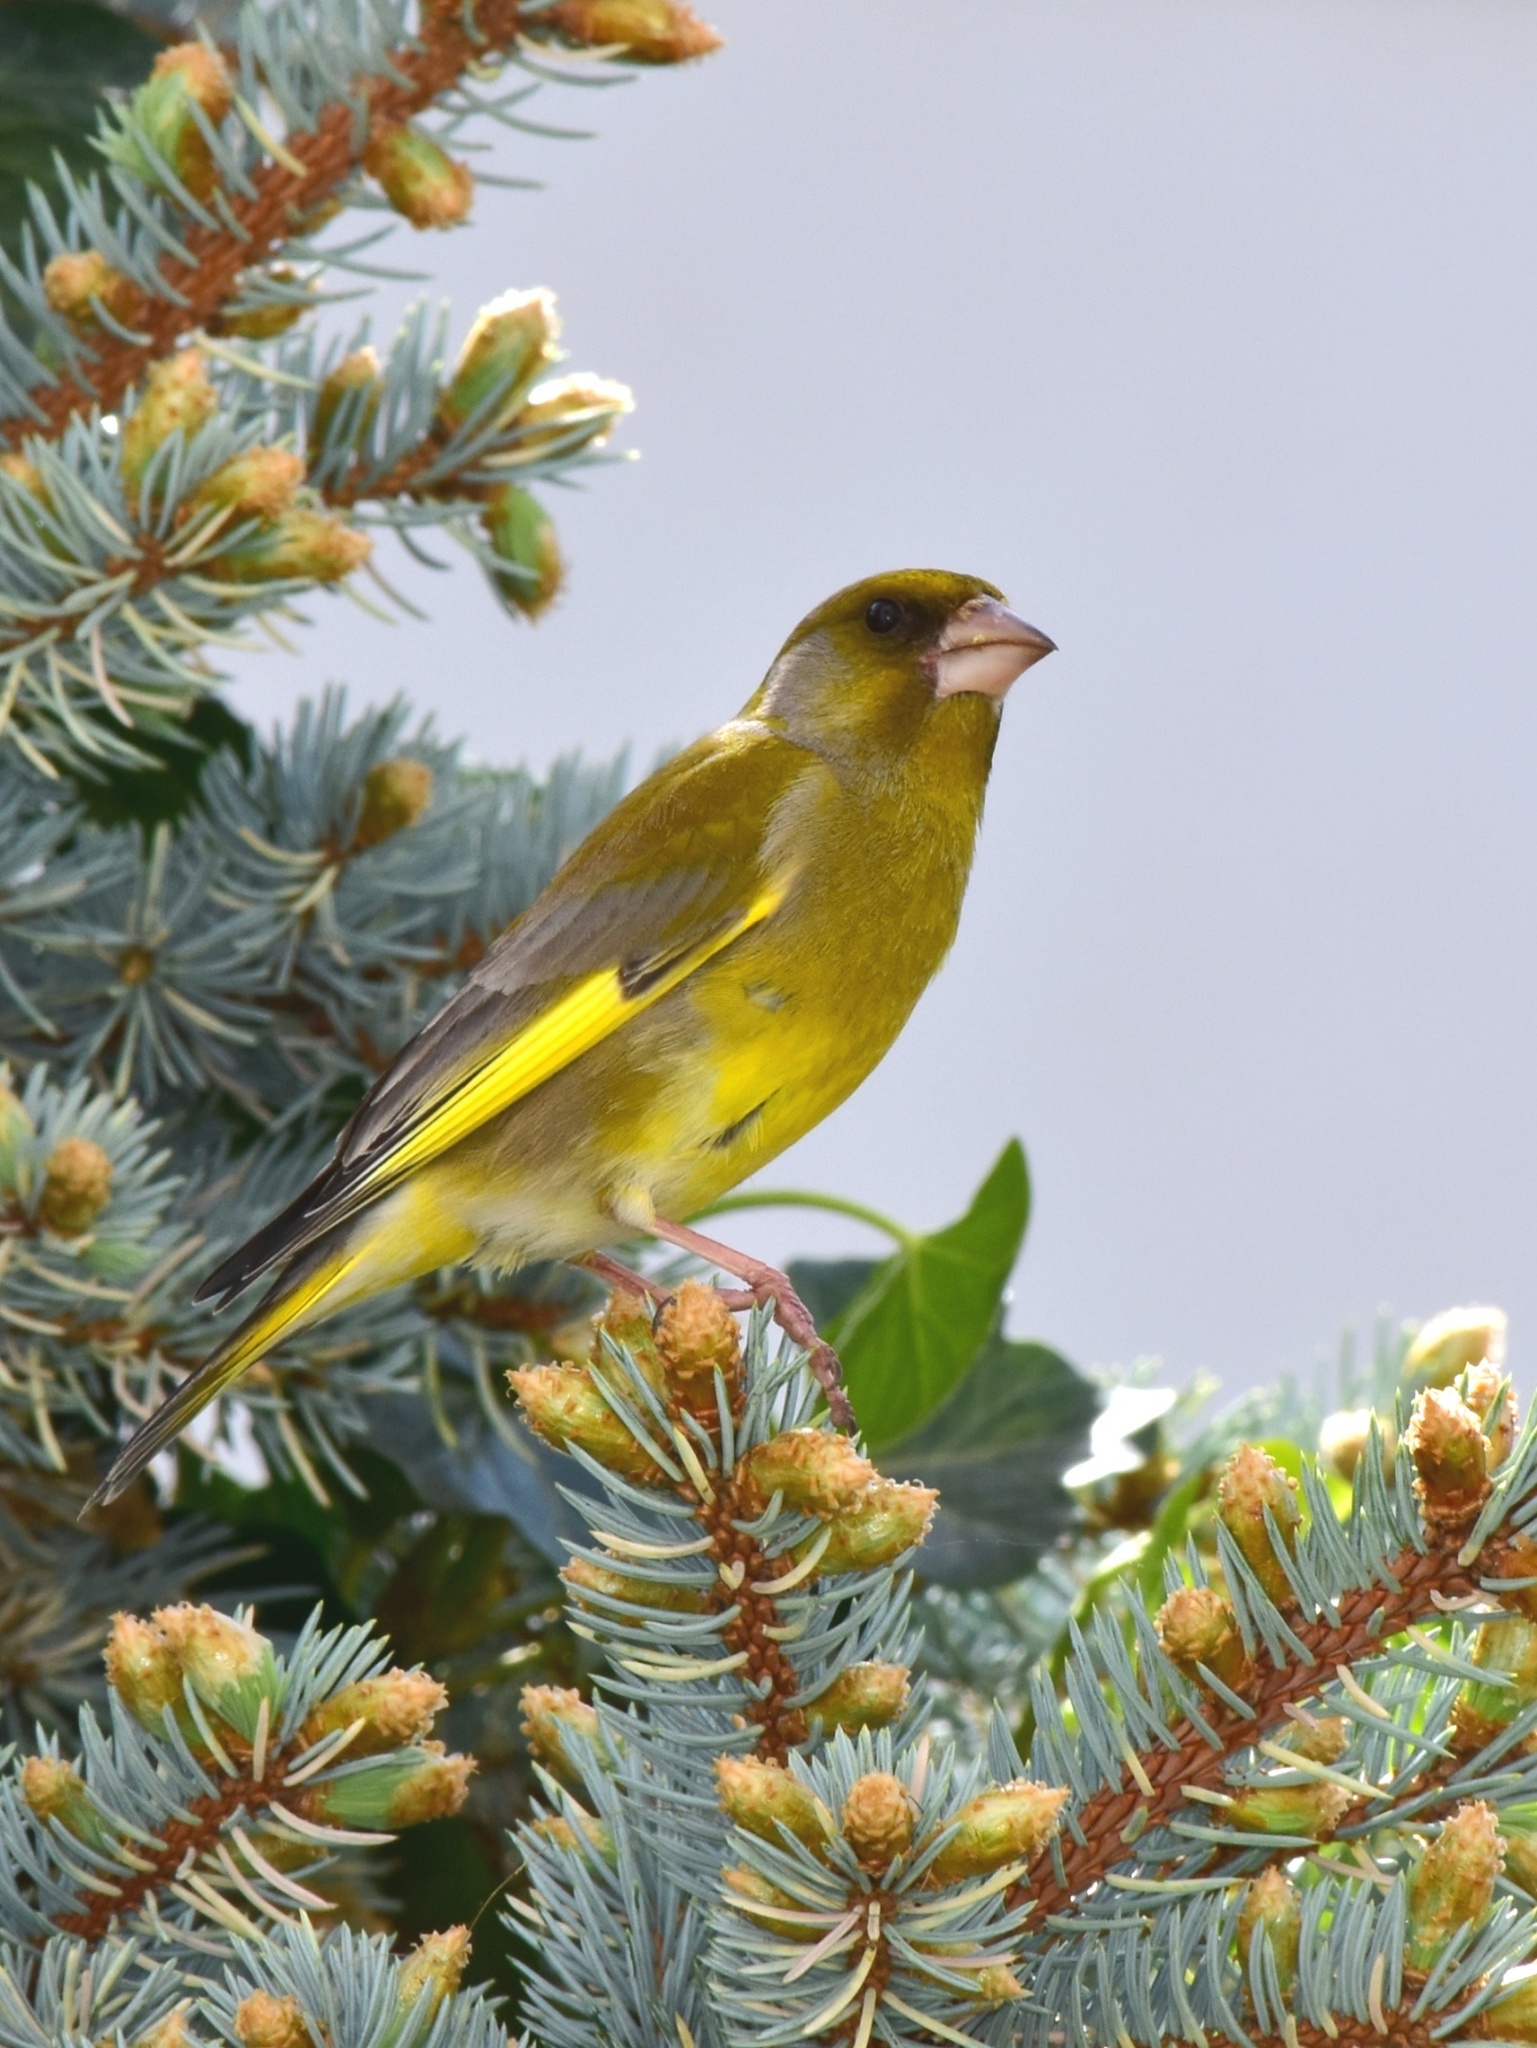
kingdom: Plantae
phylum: Tracheophyta
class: Liliopsida
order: Poales
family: Poaceae
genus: Chloris
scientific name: Chloris chloris
